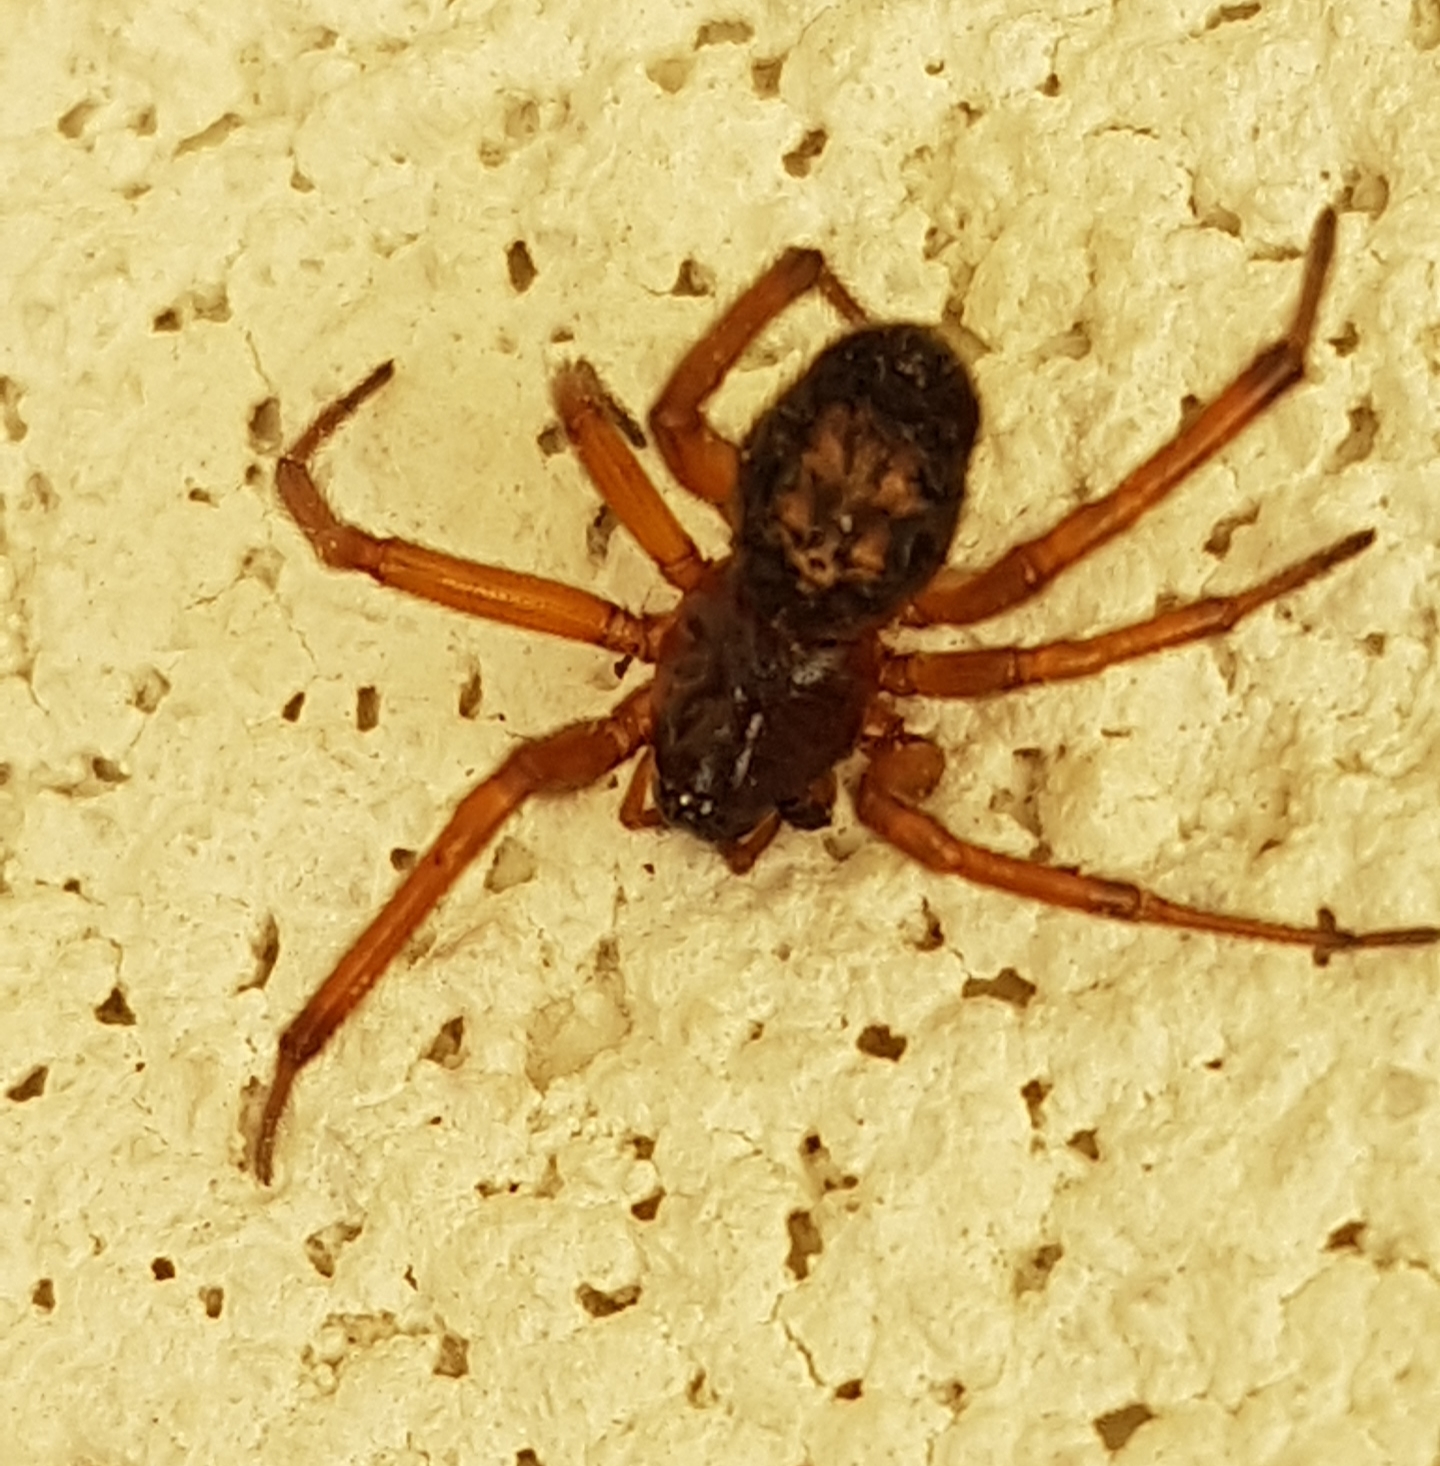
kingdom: Animalia
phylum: Arthropoda
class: Arachnida
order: Araneae
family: Theridiidae
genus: Steatoda
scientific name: Steatoda nobilis
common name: Cobweb weaver
